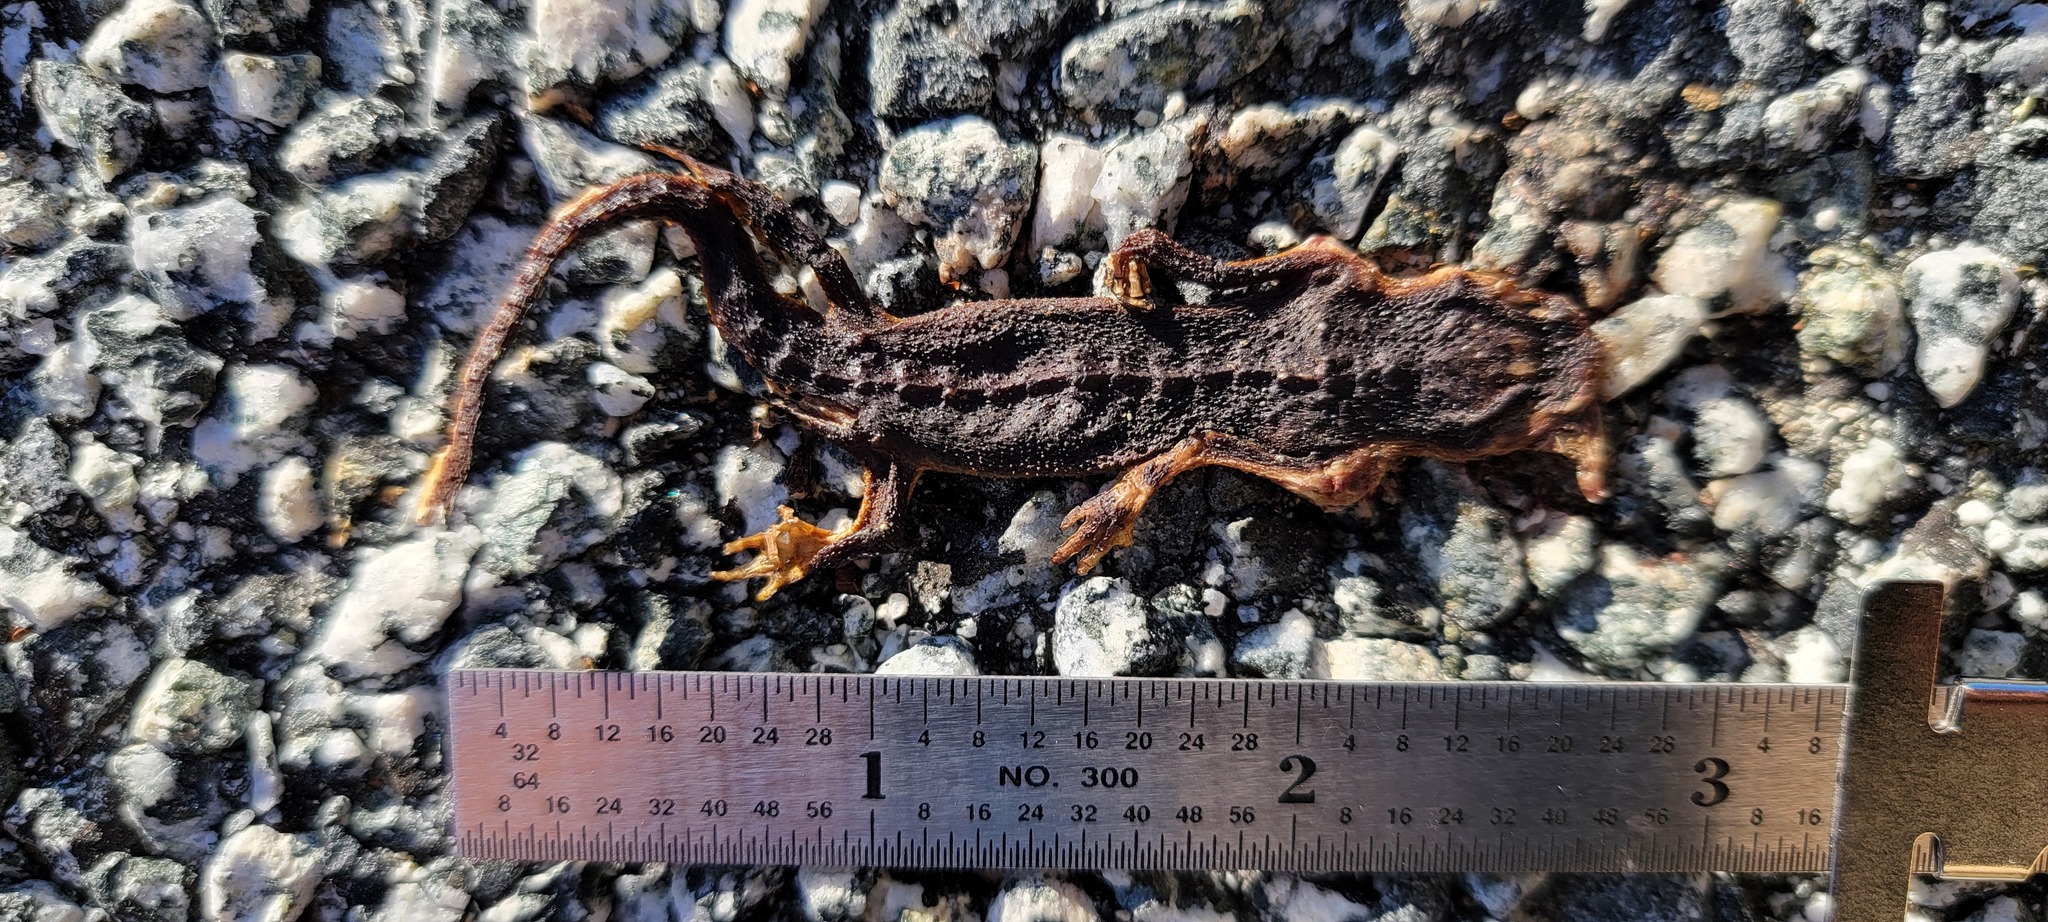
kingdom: Animalia
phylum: Chordata
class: Amphibia
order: Caudata
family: Salamandridae
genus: Taricha
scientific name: Taricha
